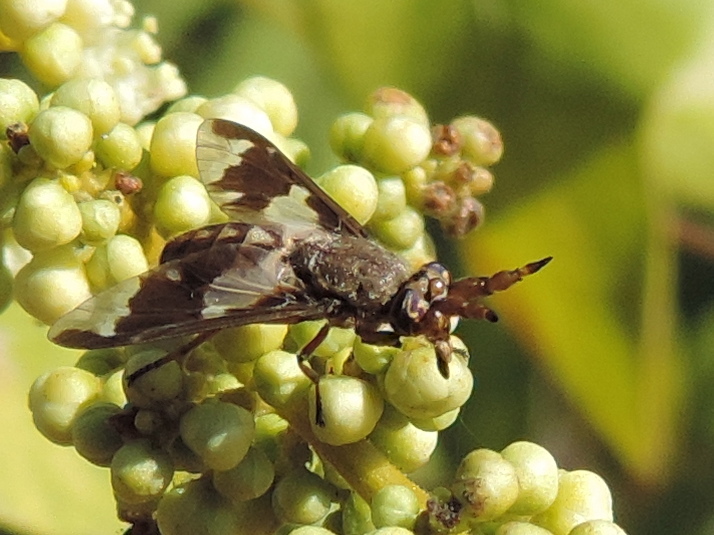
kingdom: Animalia
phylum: Arthropoda
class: Insecta
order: Diptera
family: Tabanidae
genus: Chrysops
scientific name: Chrysops virgulatus
